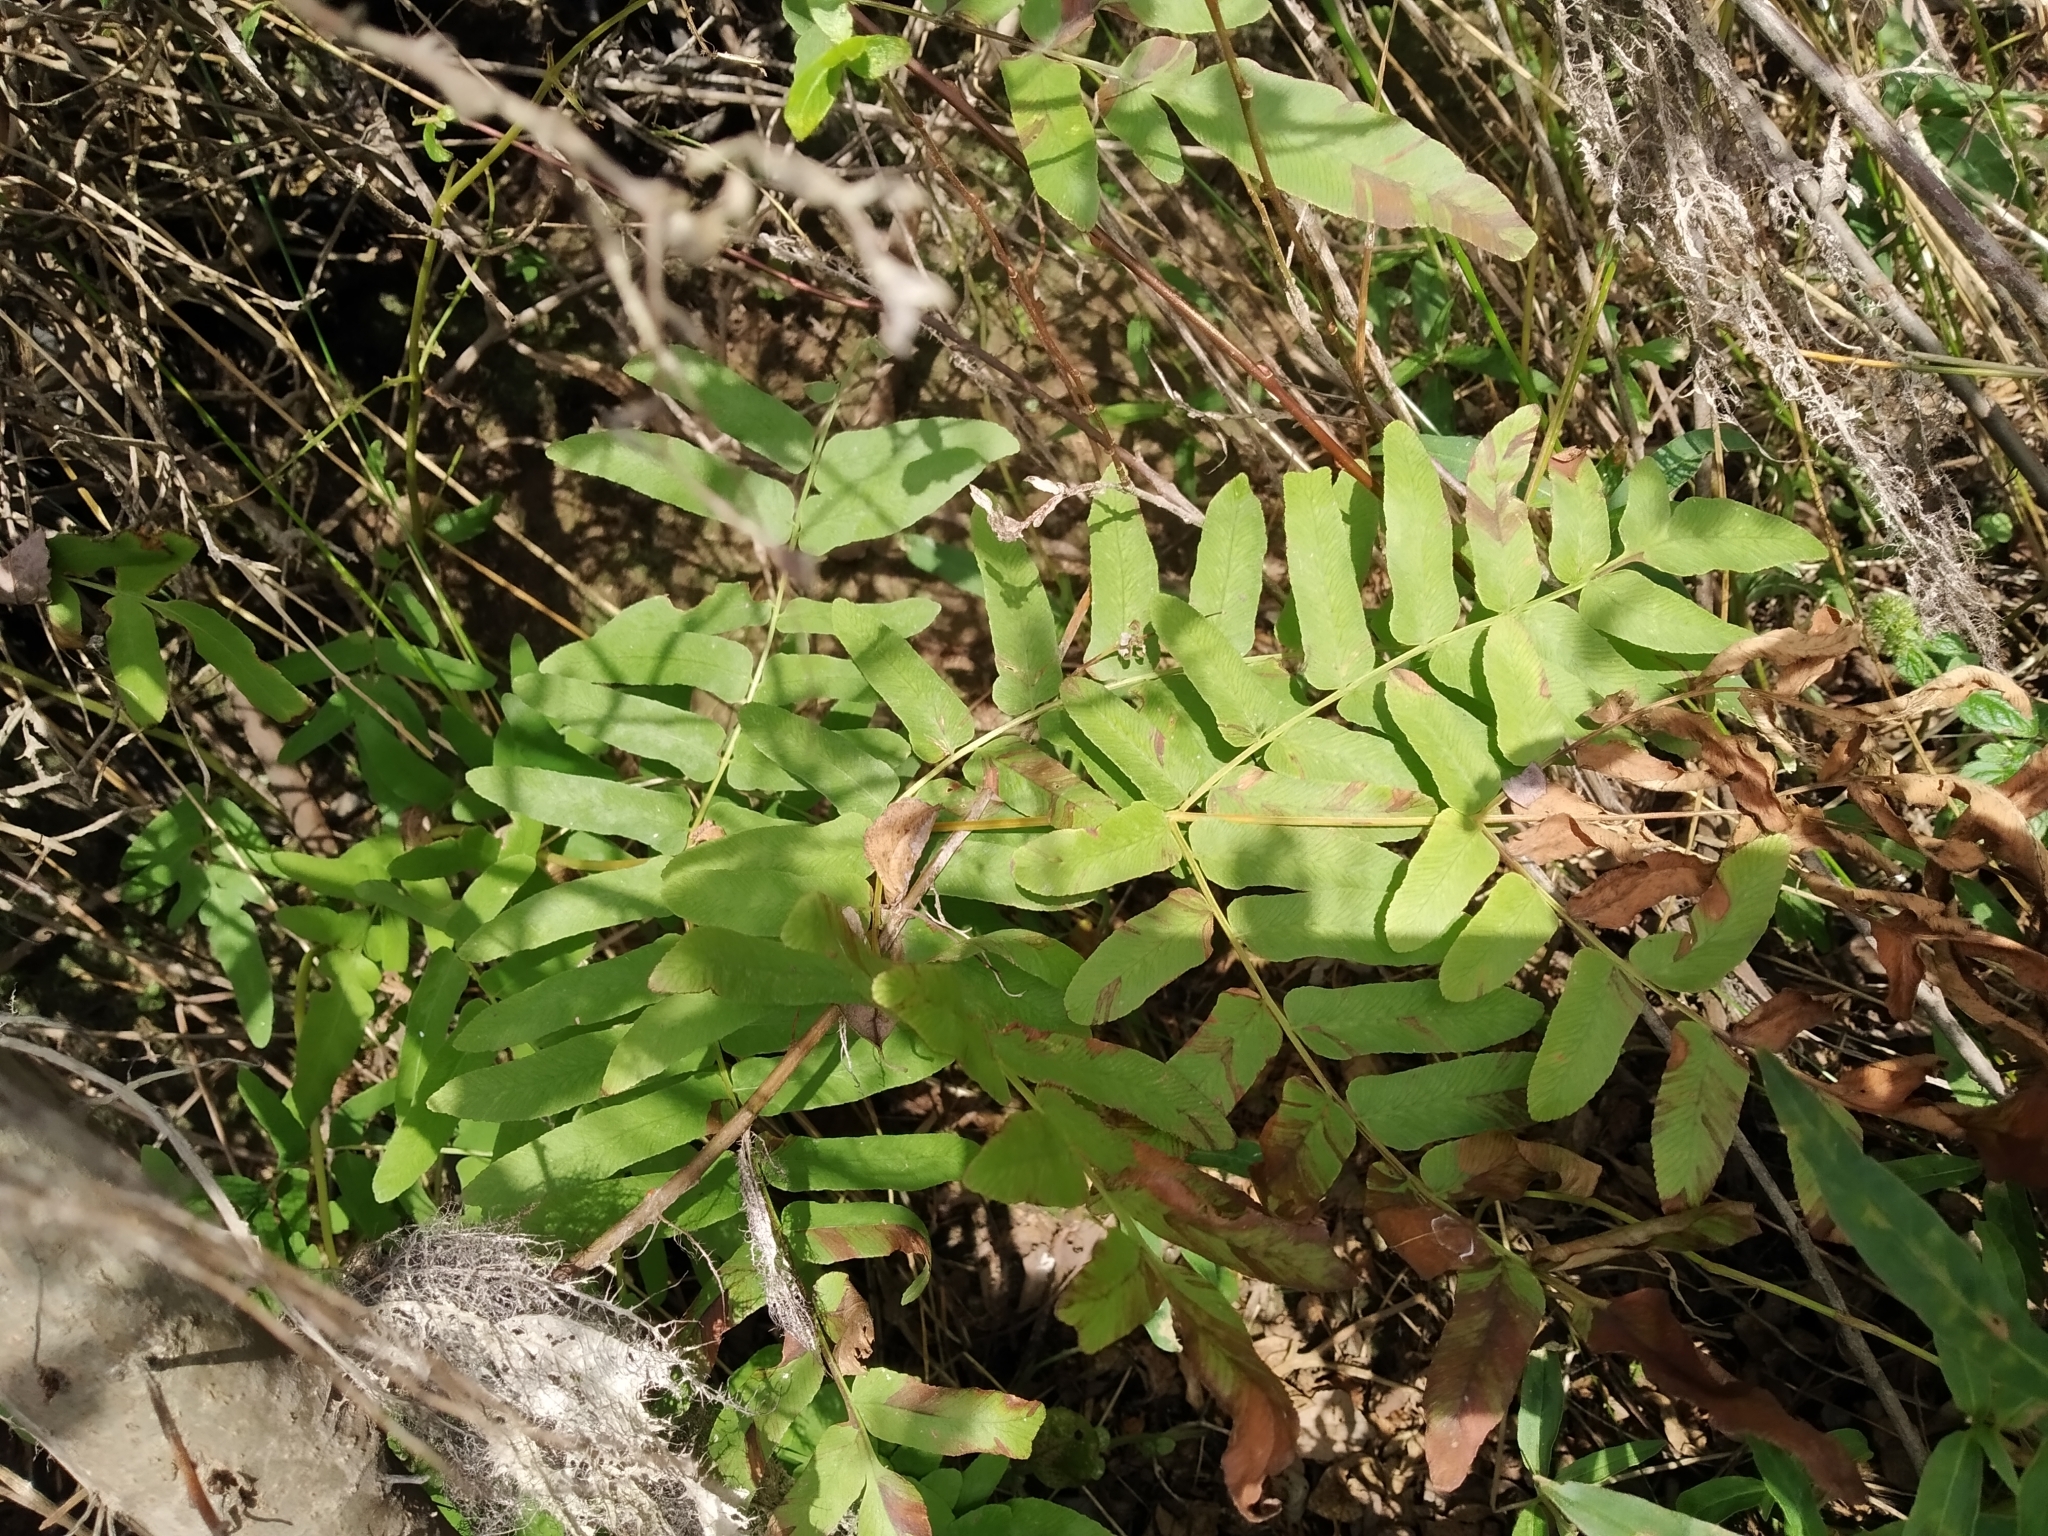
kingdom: Plantae
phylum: Tracheophyta
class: Polypodiopsida
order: Osmundales
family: Osmundaceae
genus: Osmunda
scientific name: Osmunda regalis
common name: Royal fern
